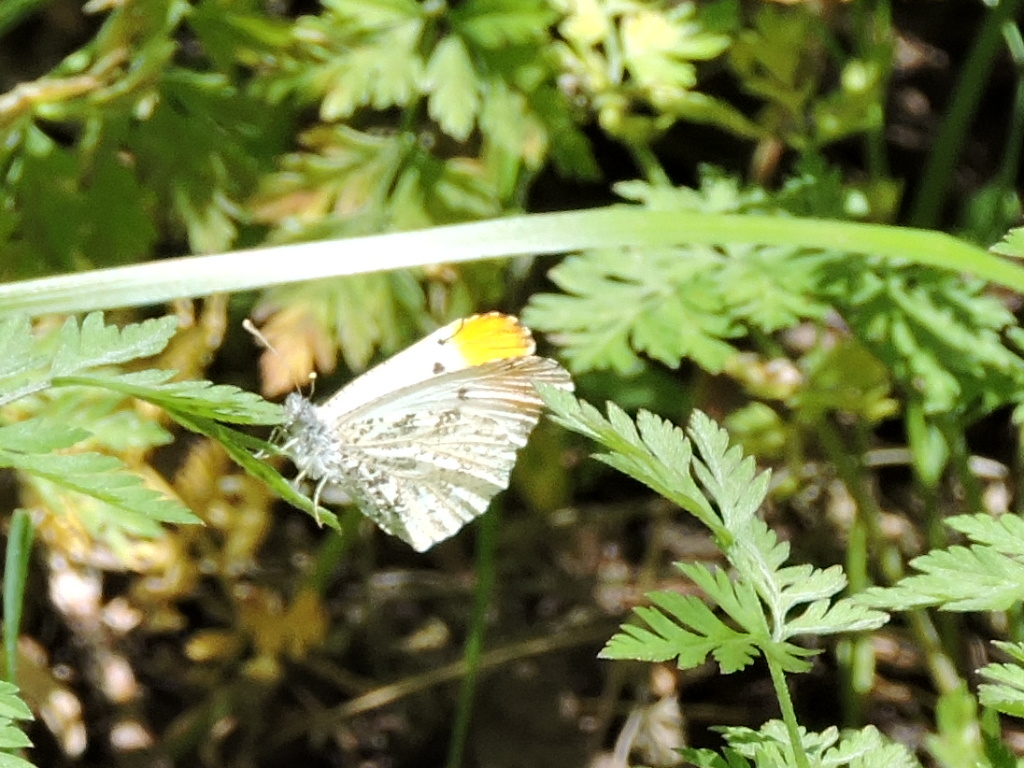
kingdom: Animalia
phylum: Arthropoda
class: Insecta
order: Lepidoptera
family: Pieridae
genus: Anthocharis
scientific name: Anthocharis midea
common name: Falcate orangetip
